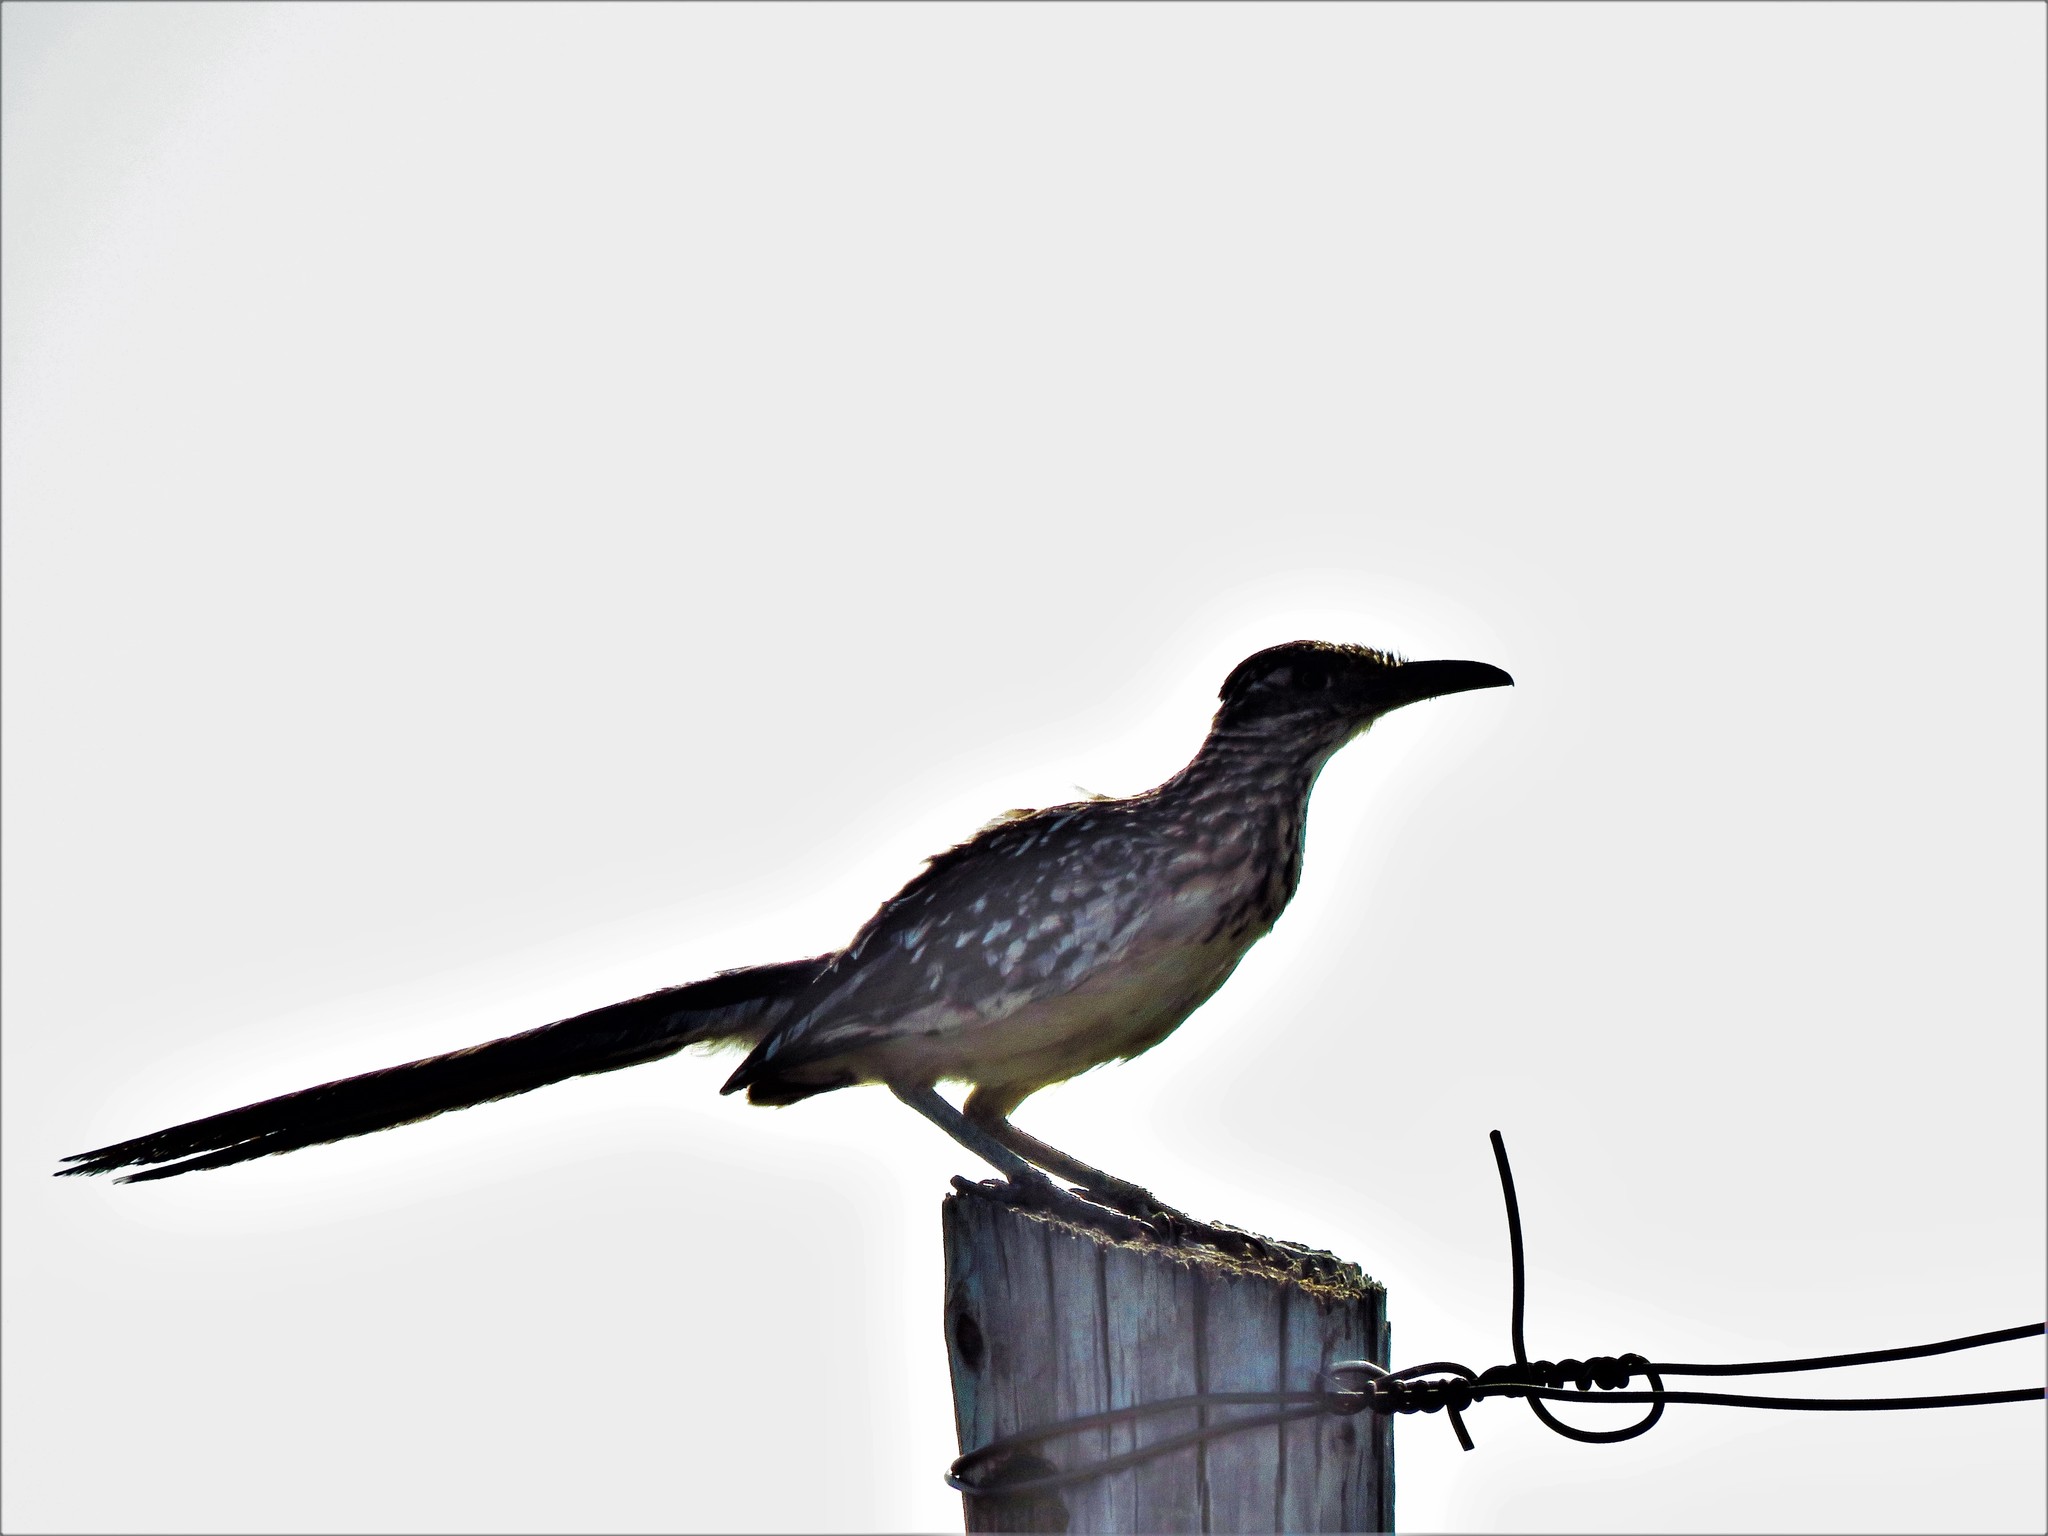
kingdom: Animalia
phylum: Chordata
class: Aves
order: Cuculiformes
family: Cuculidae
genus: Geococcyx
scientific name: Geococcyx californianus
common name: Greater roadrunner
